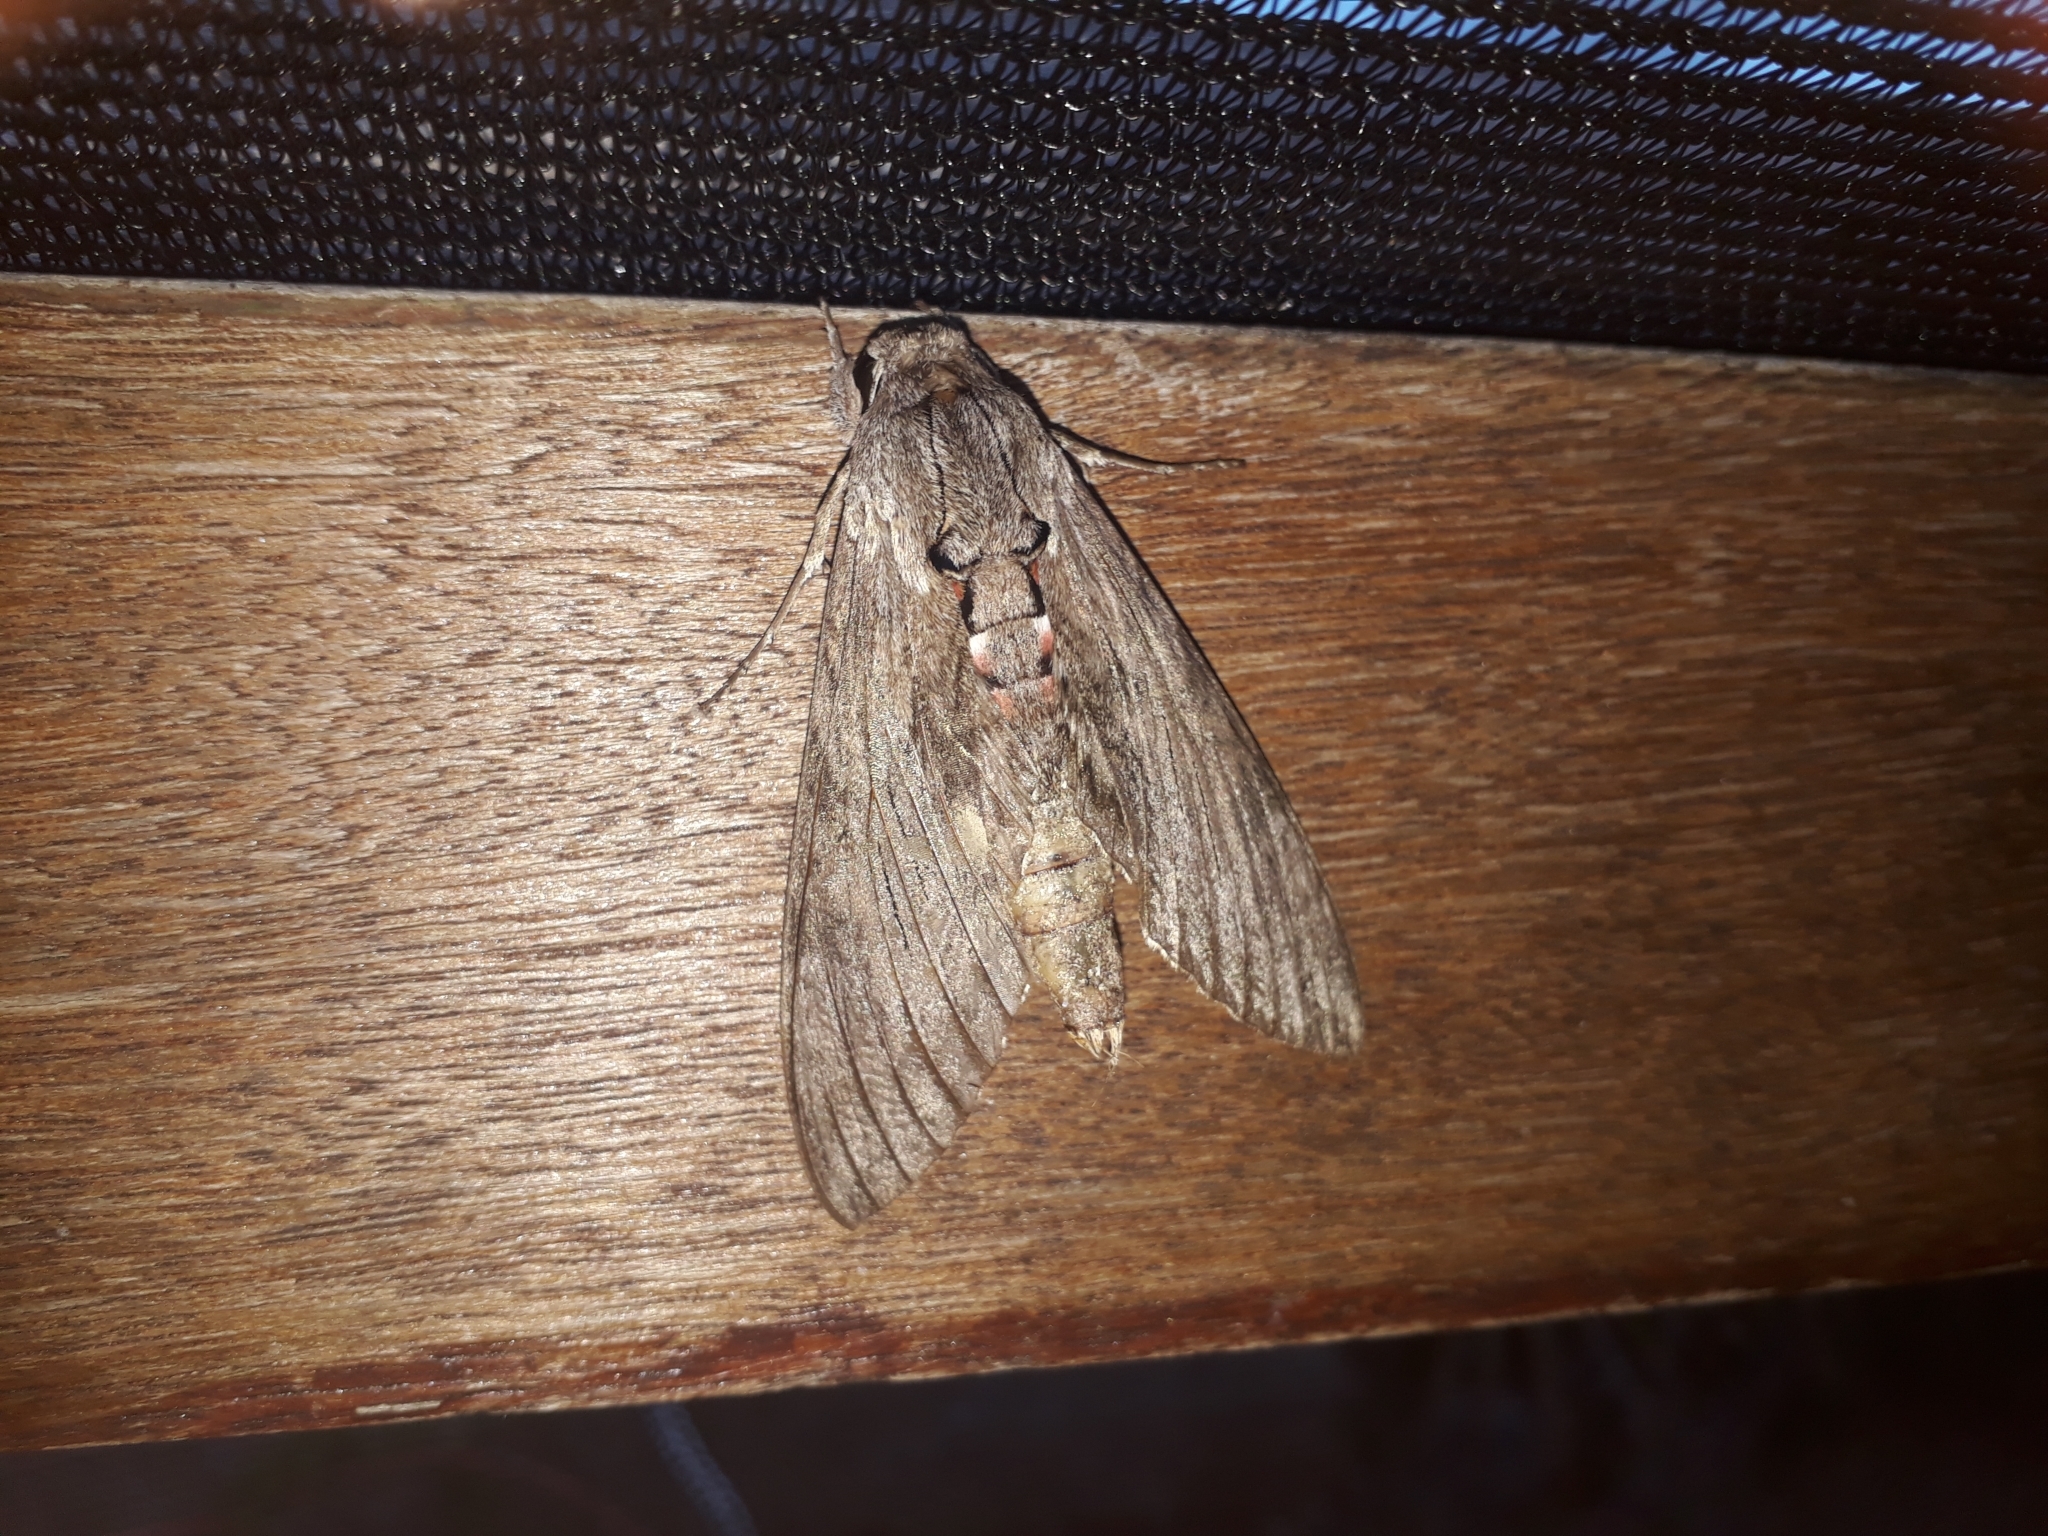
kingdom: Animalia
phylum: Arthropoda
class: Insecta
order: Lepidoptera
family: Sphingidae
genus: Agrius
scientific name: Agrius convolvuli
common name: Convolvulus hawkmoth
